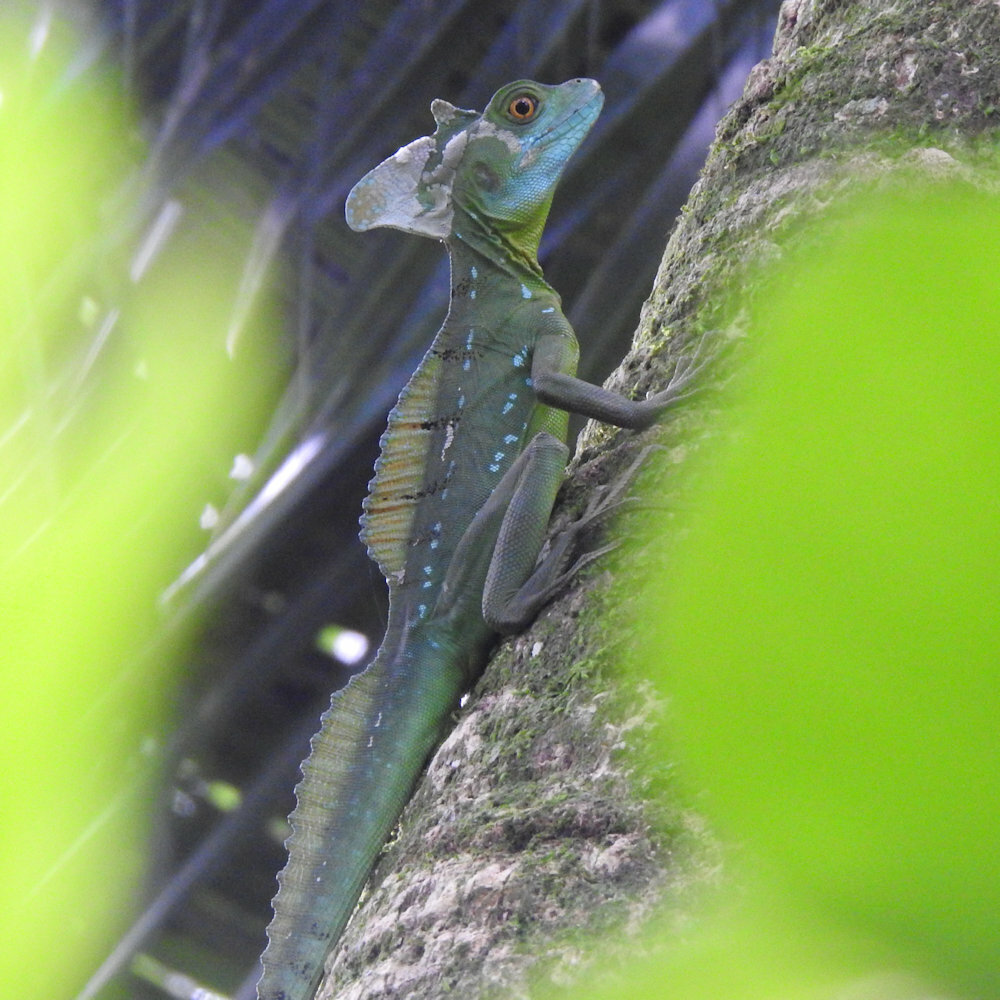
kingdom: Animalia
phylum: Chordata
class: Squamata
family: Corytophanidae
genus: Basiliscus
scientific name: Basiliscus plumifrons
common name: Green basilisk
